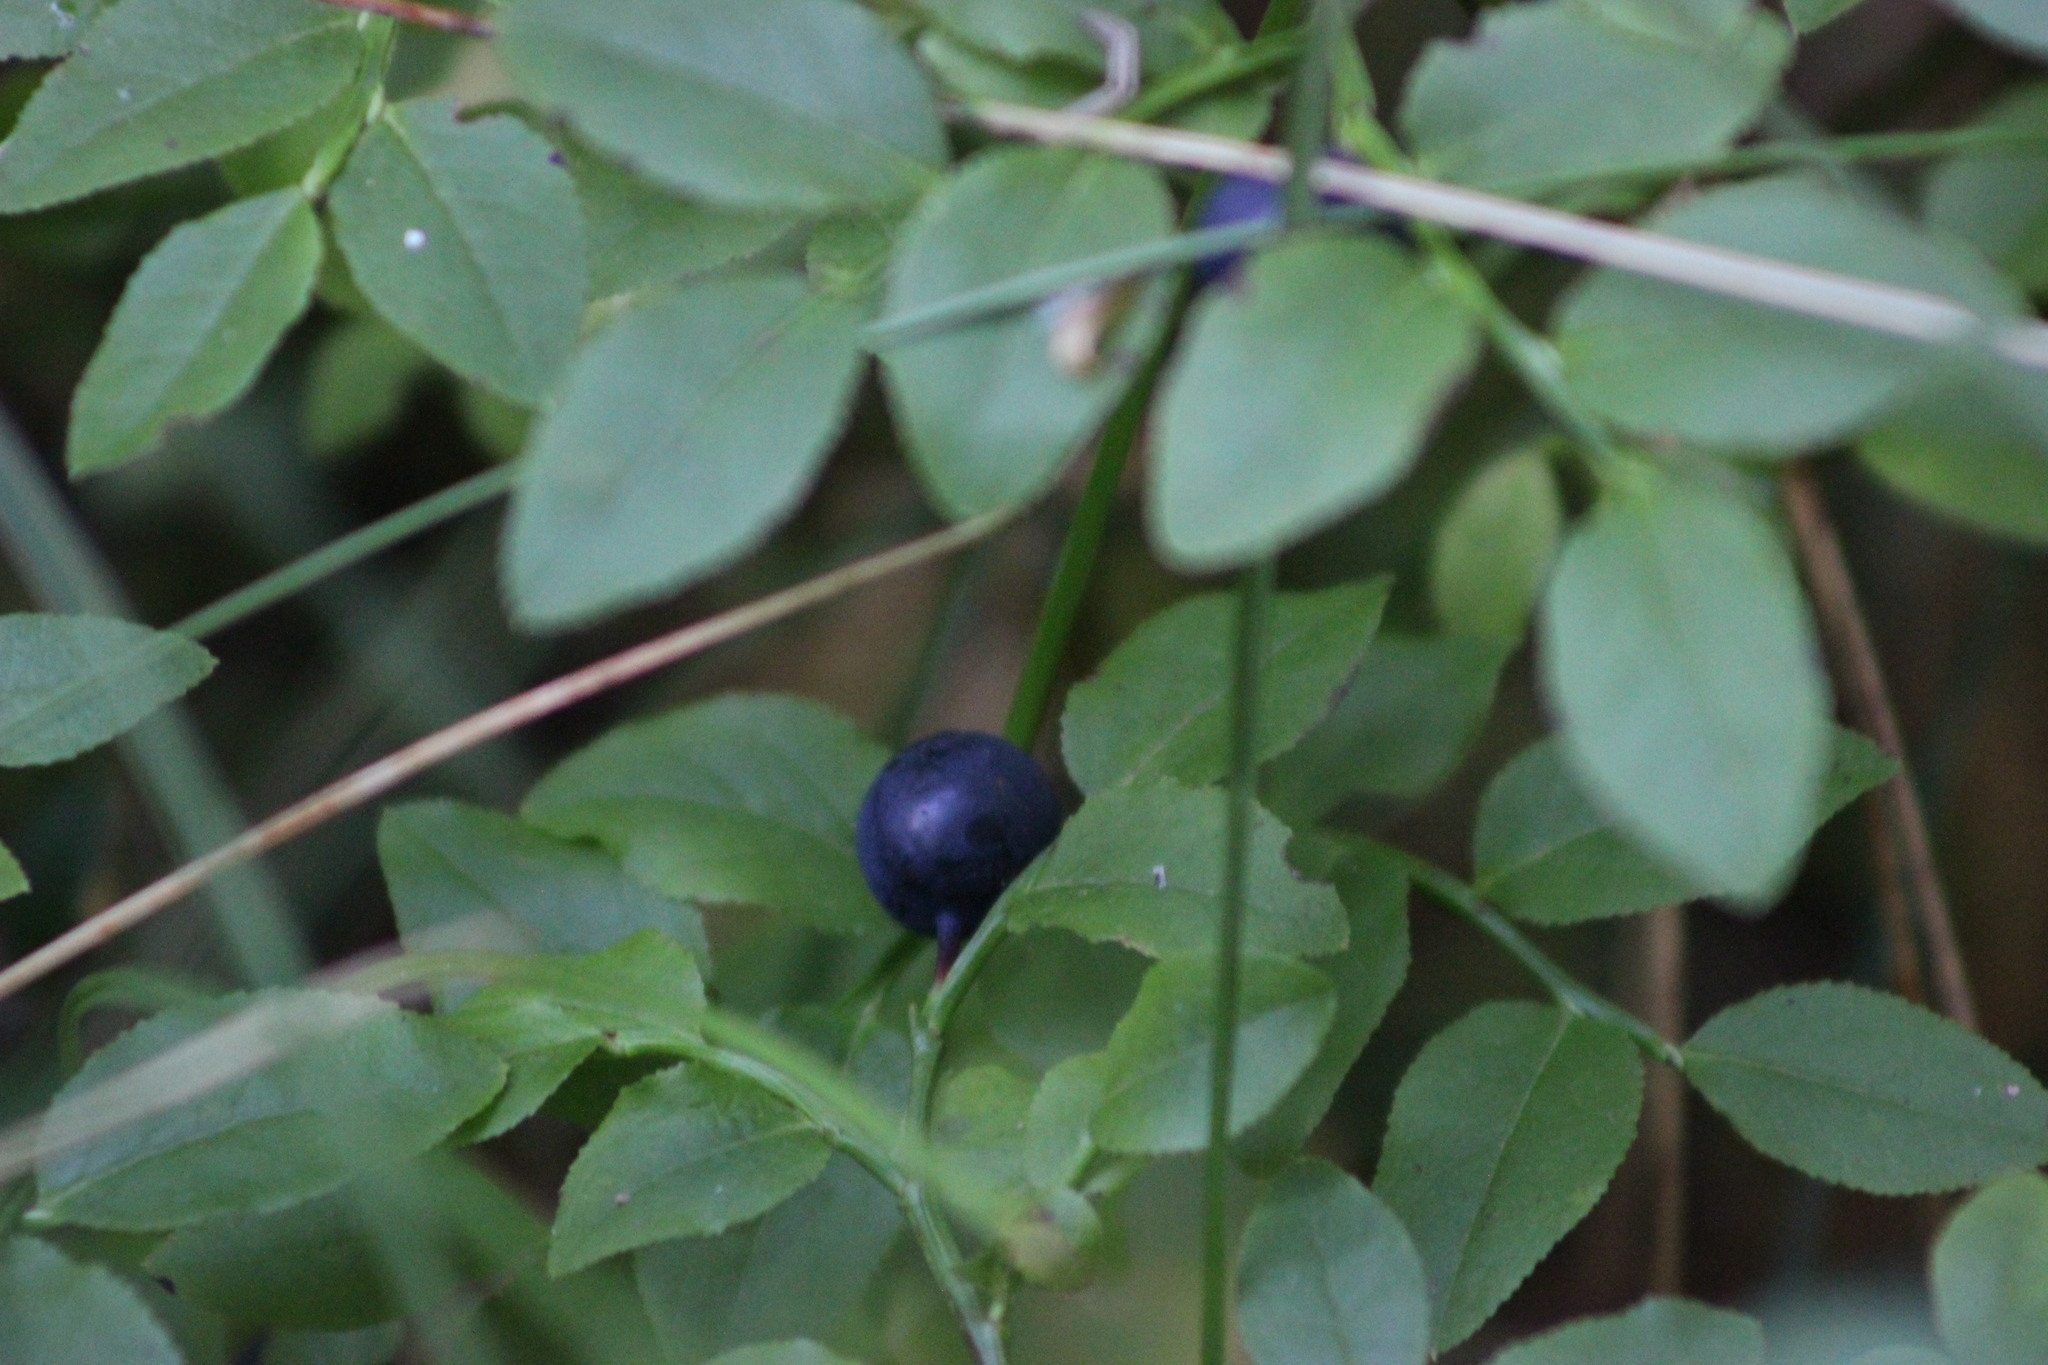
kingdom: Plantae
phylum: Tracheophyta
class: Magnoliopsida
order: Ericales
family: Ericaceae
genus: Vaccinium
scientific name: Vaccinium myrtillus
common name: Bilberry
